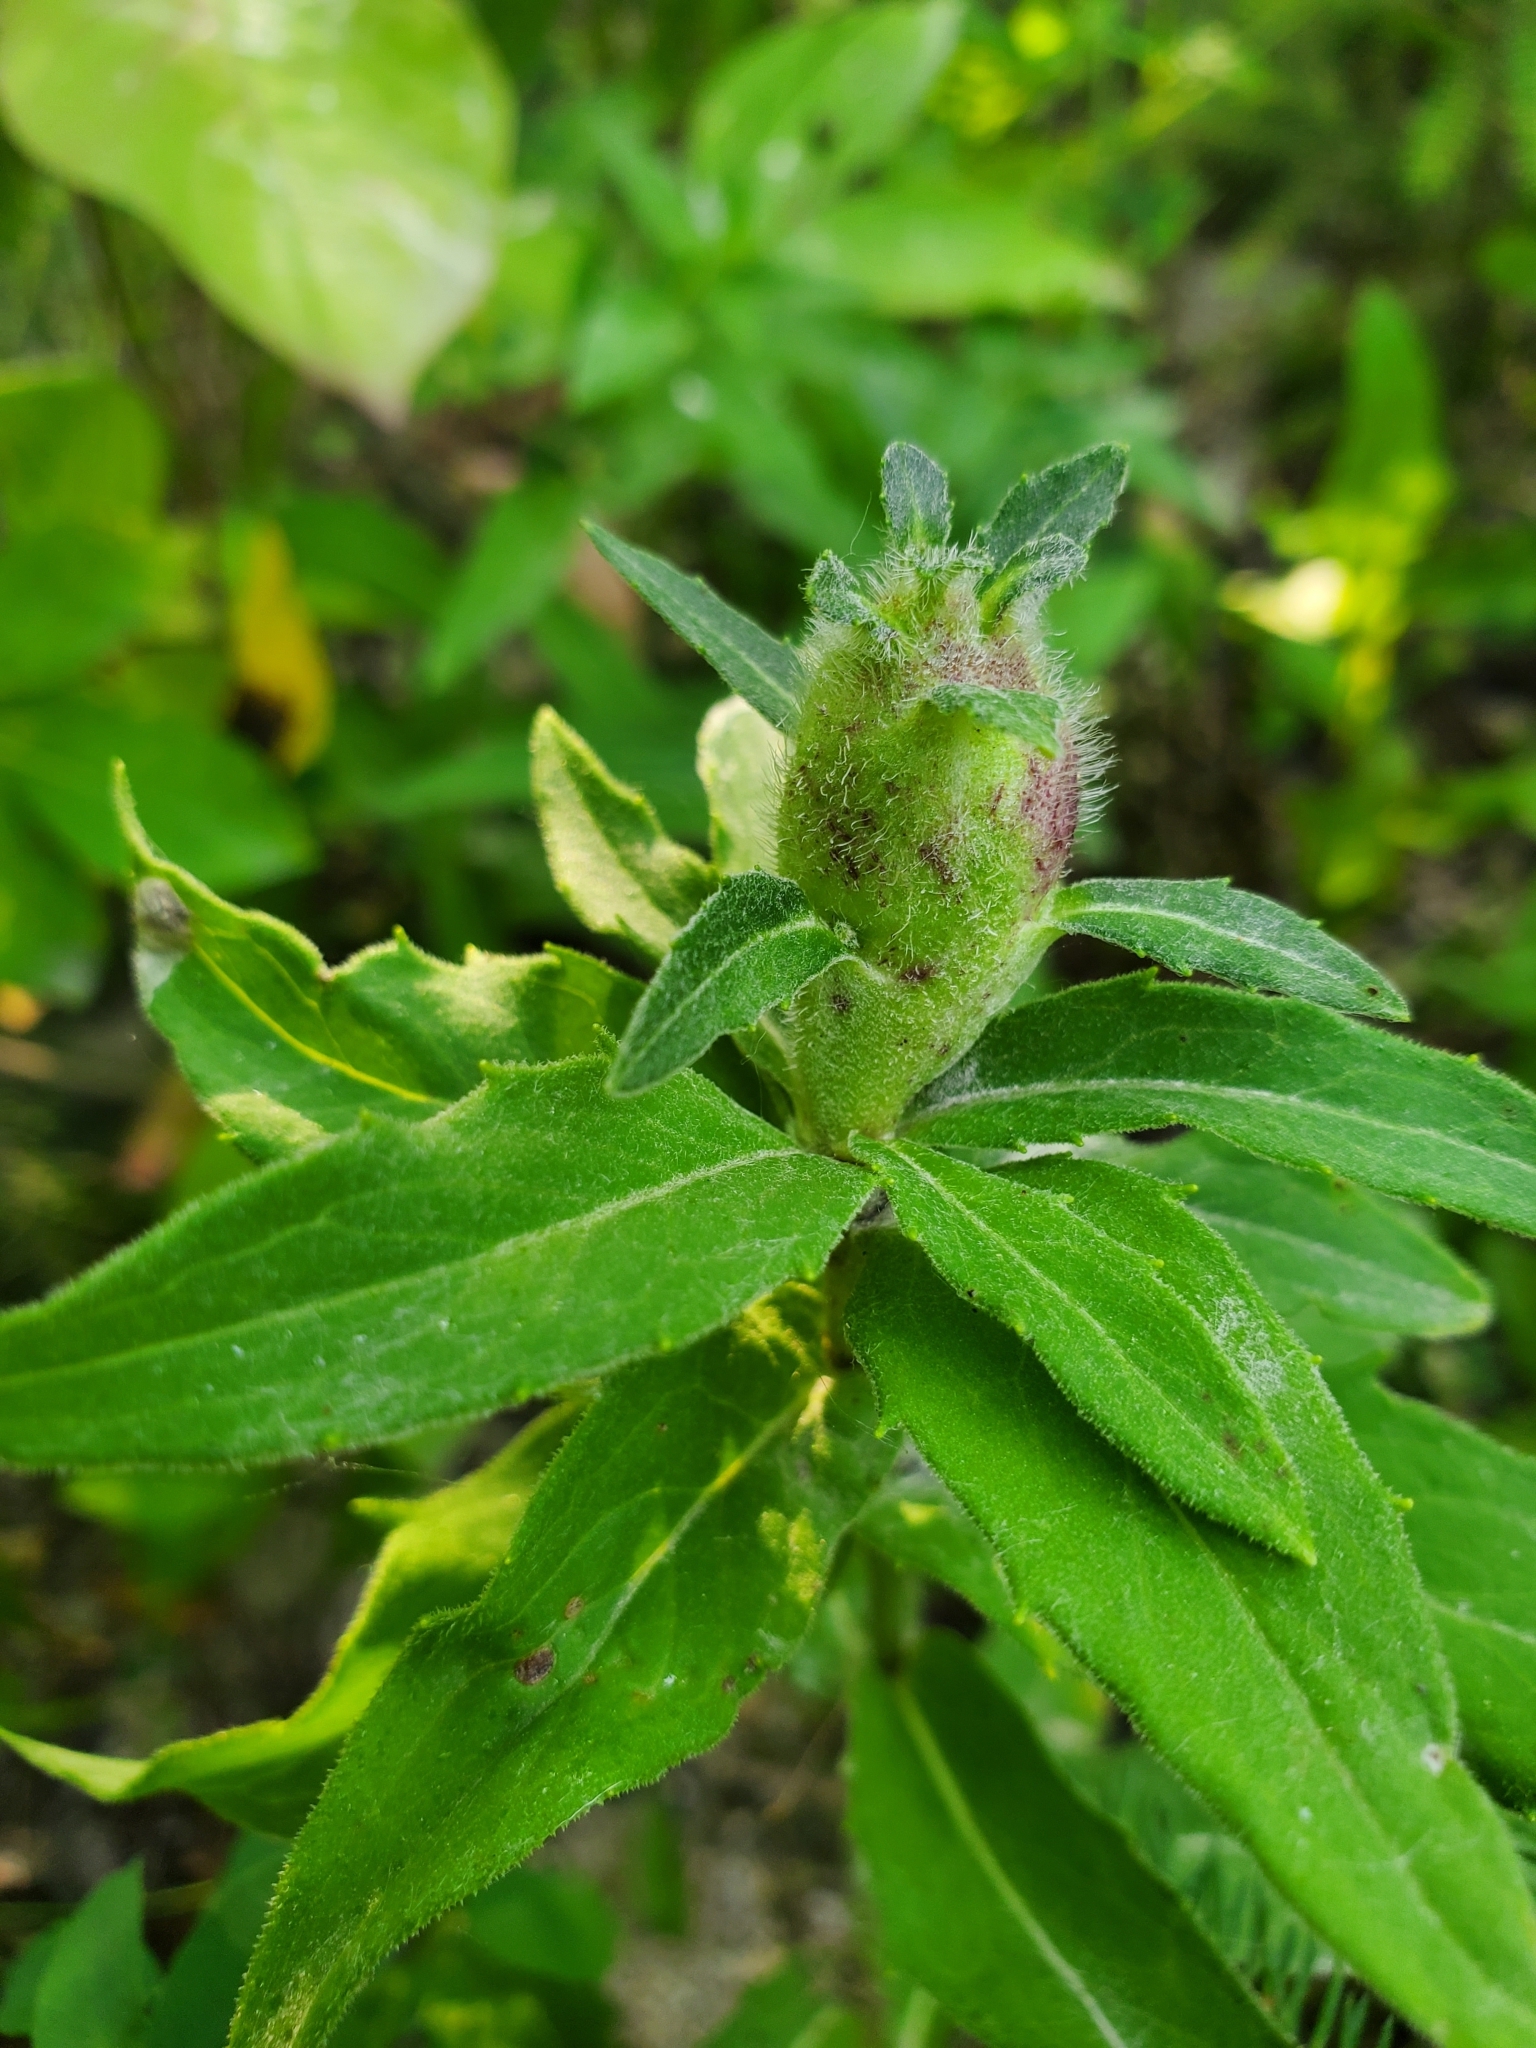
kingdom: Animalia
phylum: Arthropoda
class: Insecta
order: Hymenoptera
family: Cynipidae
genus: Aulacidea
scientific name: Aulacidea hieracii
